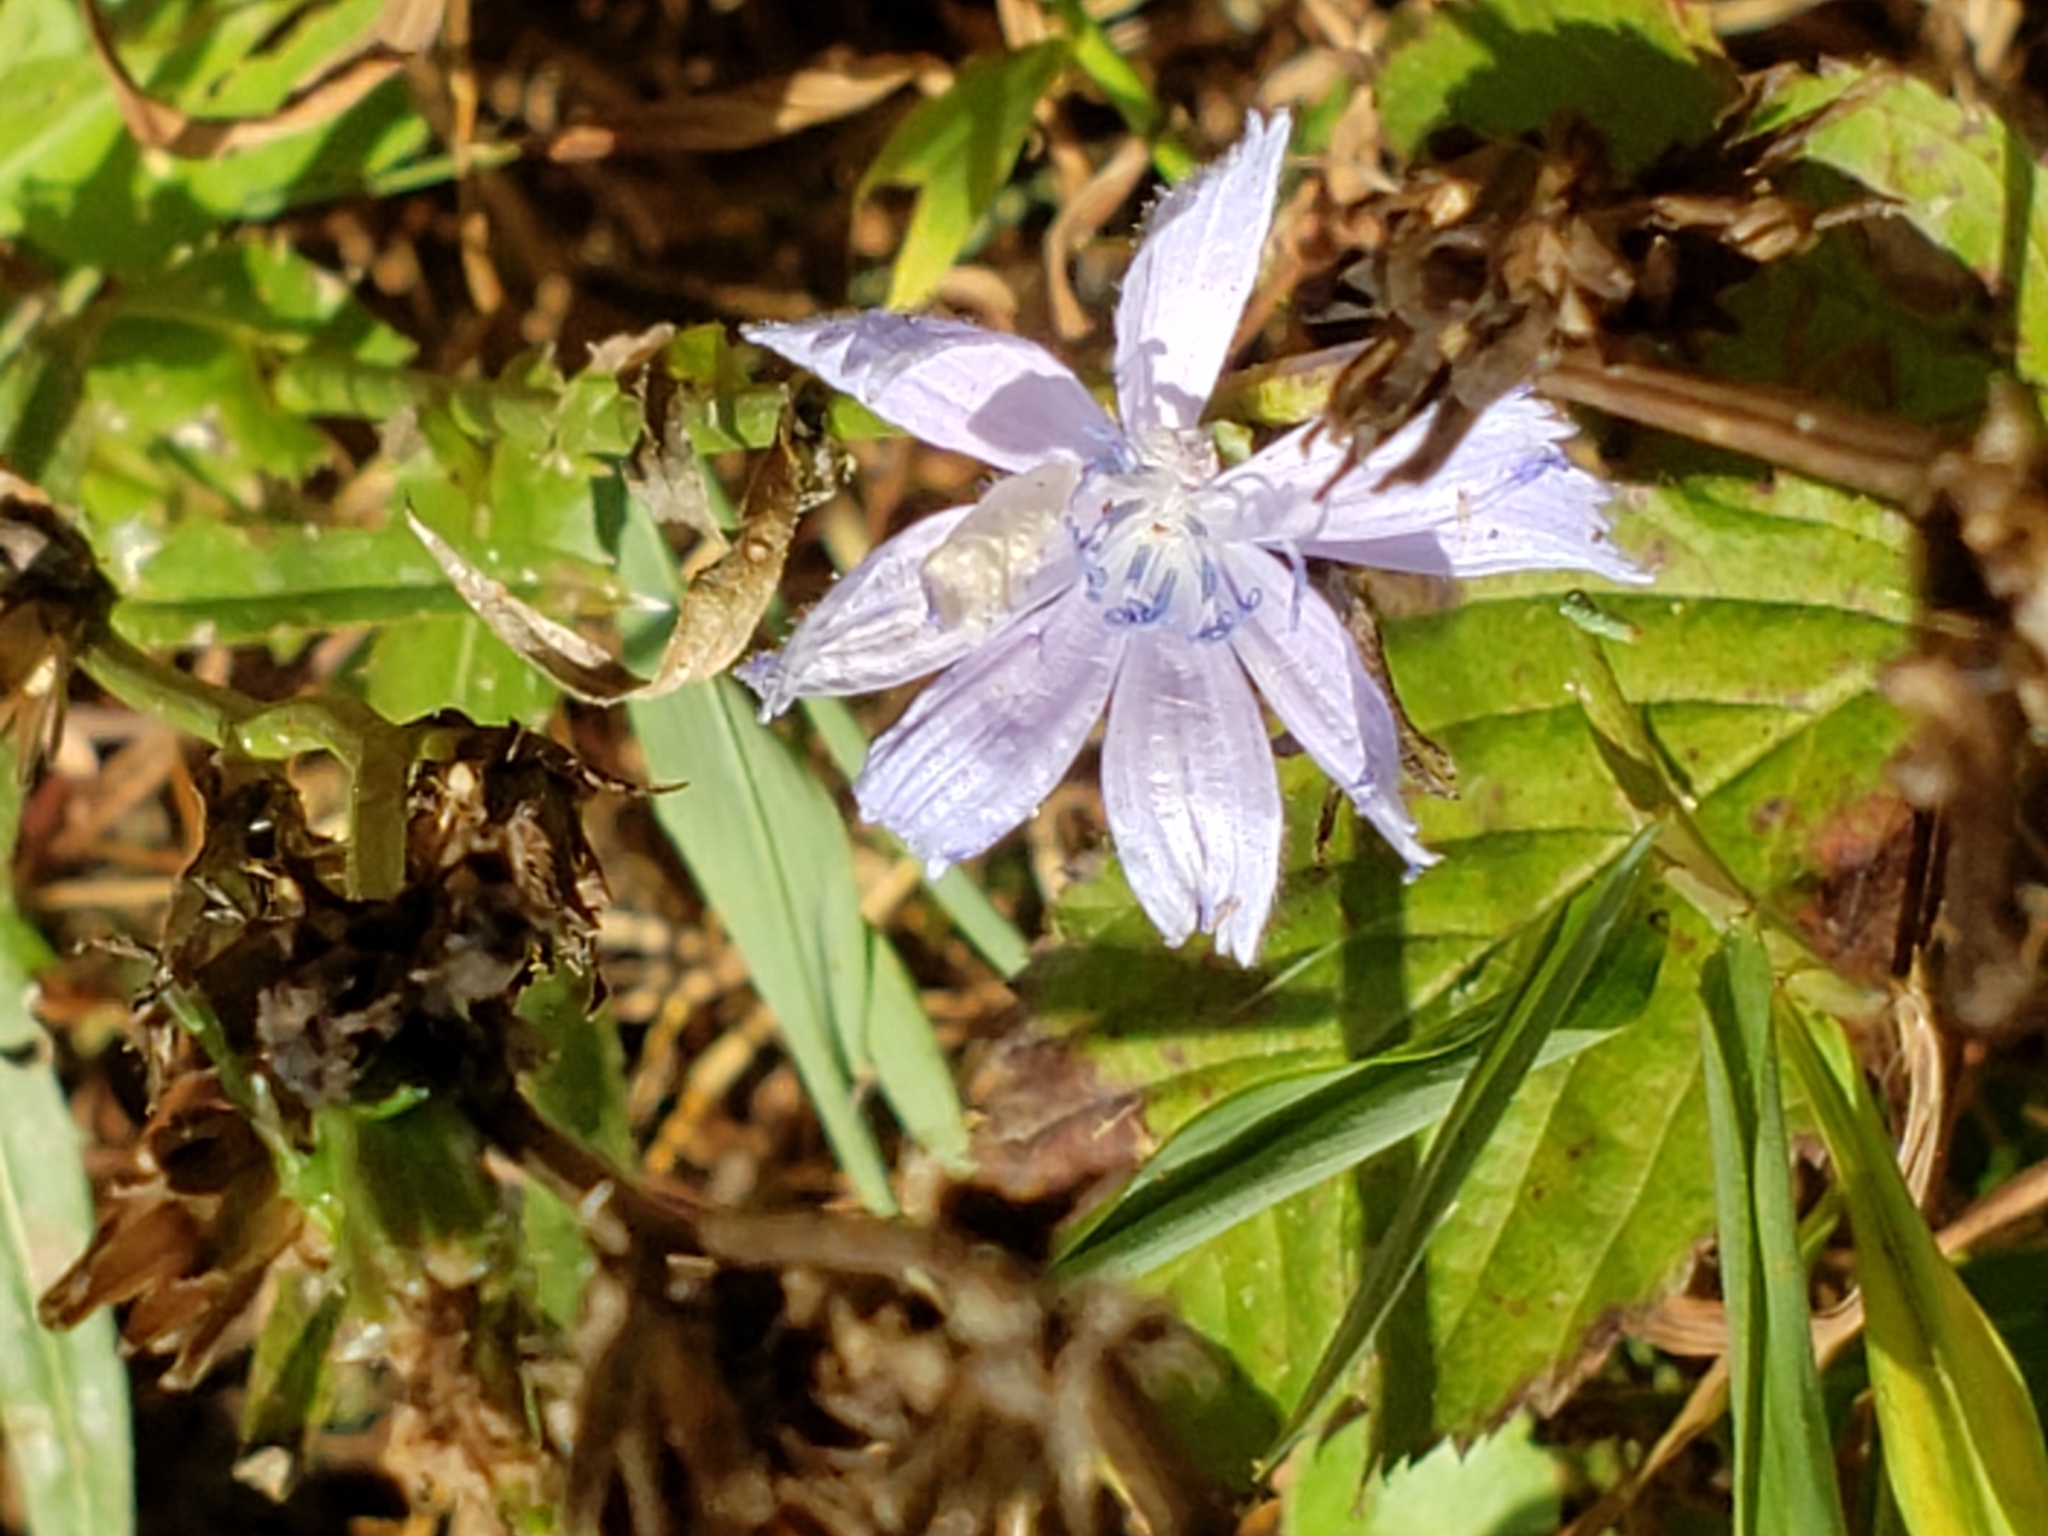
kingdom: Plantae
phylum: Tracheophyta
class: Magnoliopsida
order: Asterales
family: Asteraceae
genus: Cichorium
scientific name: Cichorium intybus
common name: Chicory
